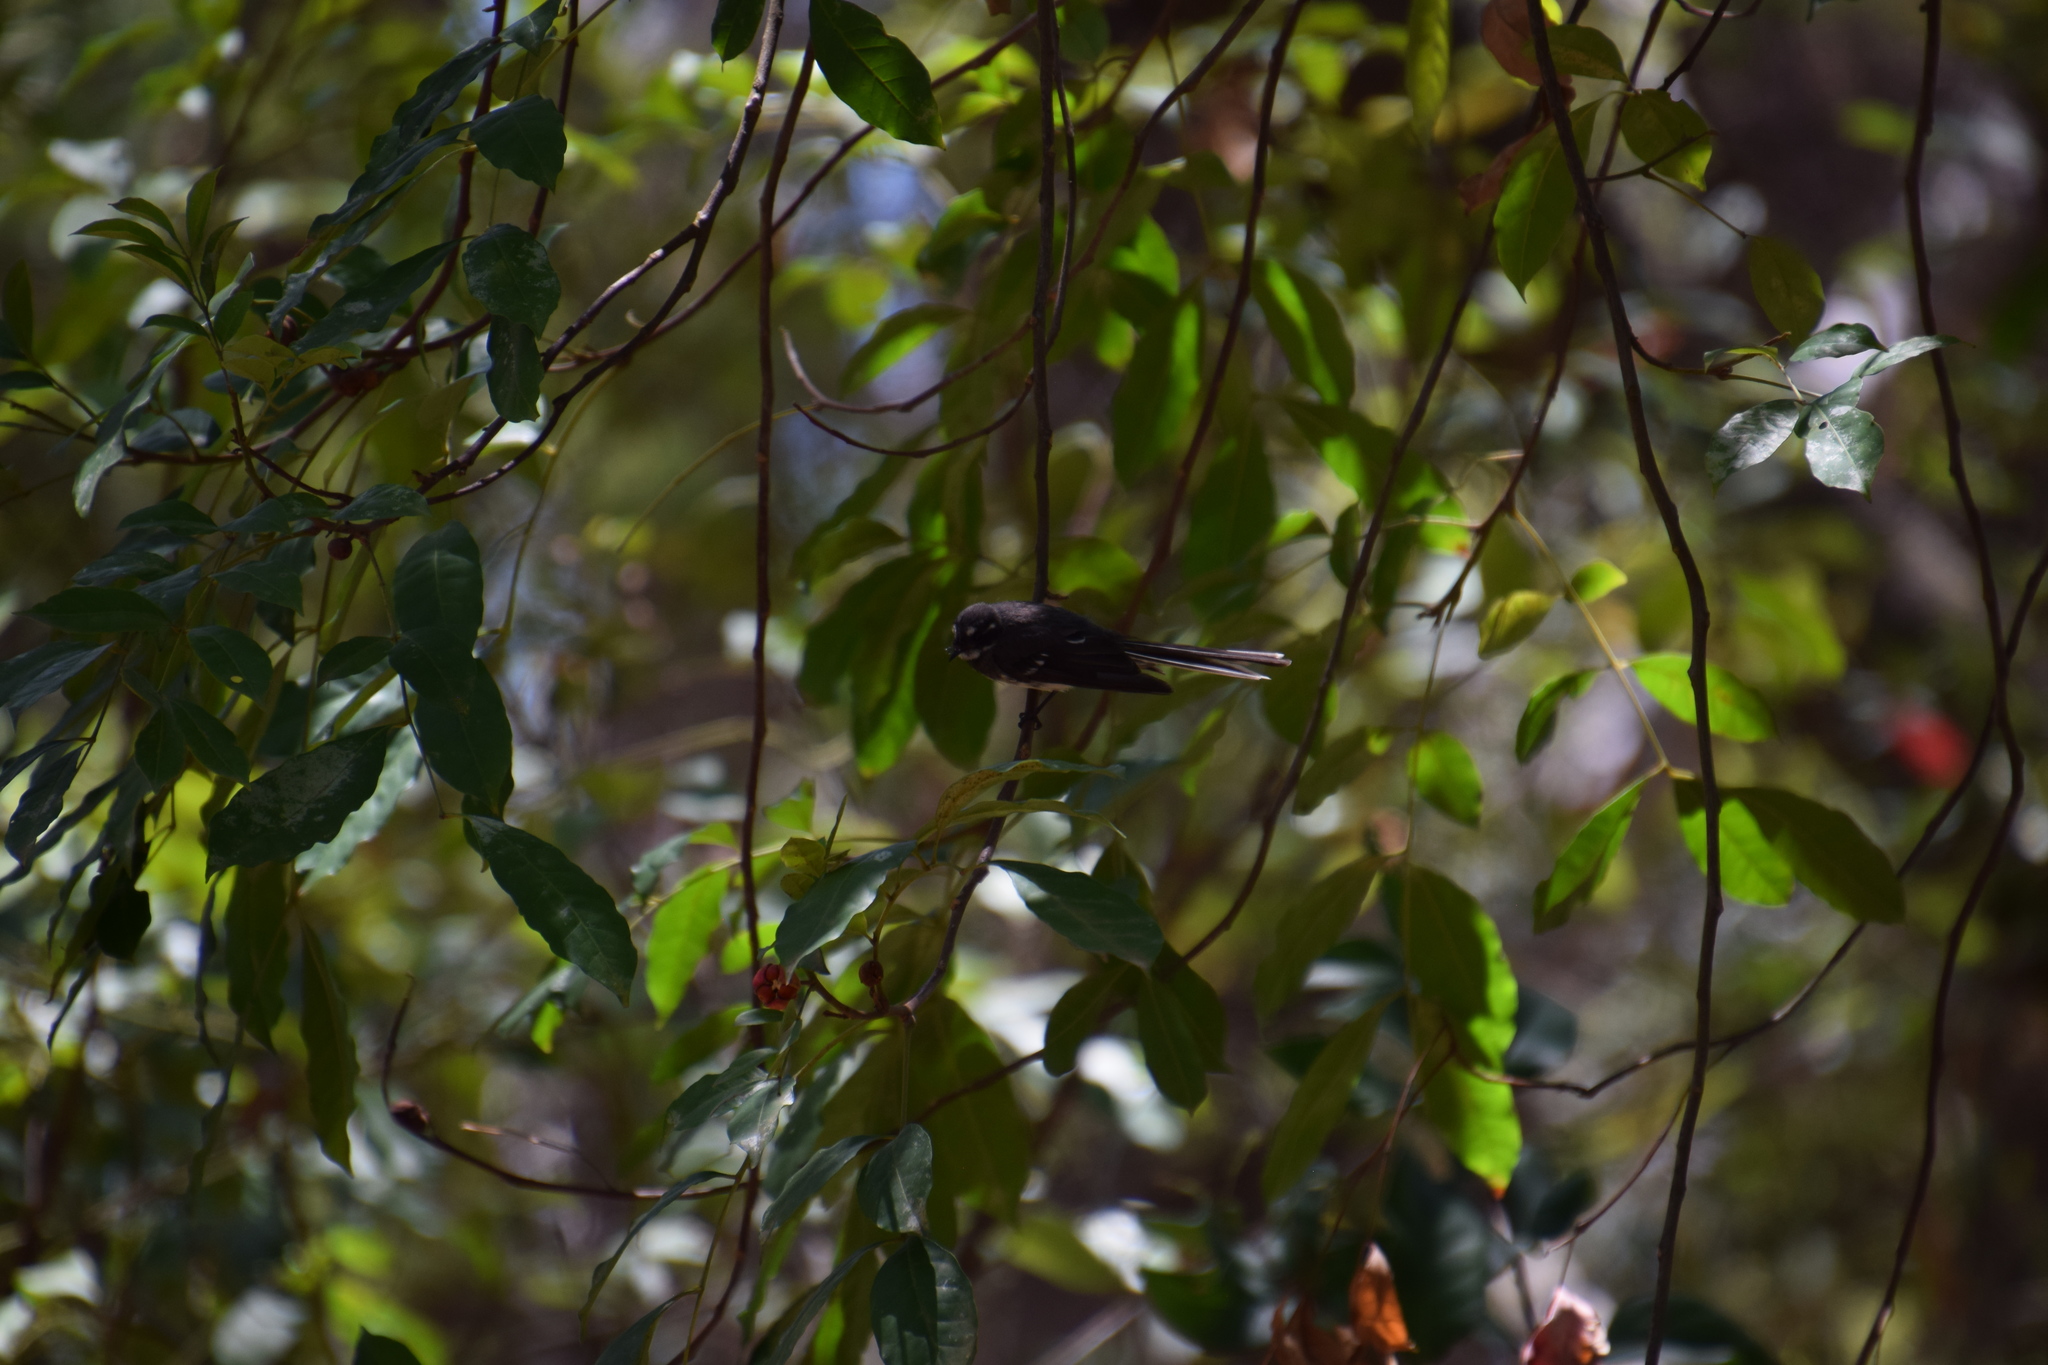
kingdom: Animalia
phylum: Chordata
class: Aves
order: Passeriformes
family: Rhipiduridae
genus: Rhipidura
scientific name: Rhipidura albiscapa
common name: Grey fantail
